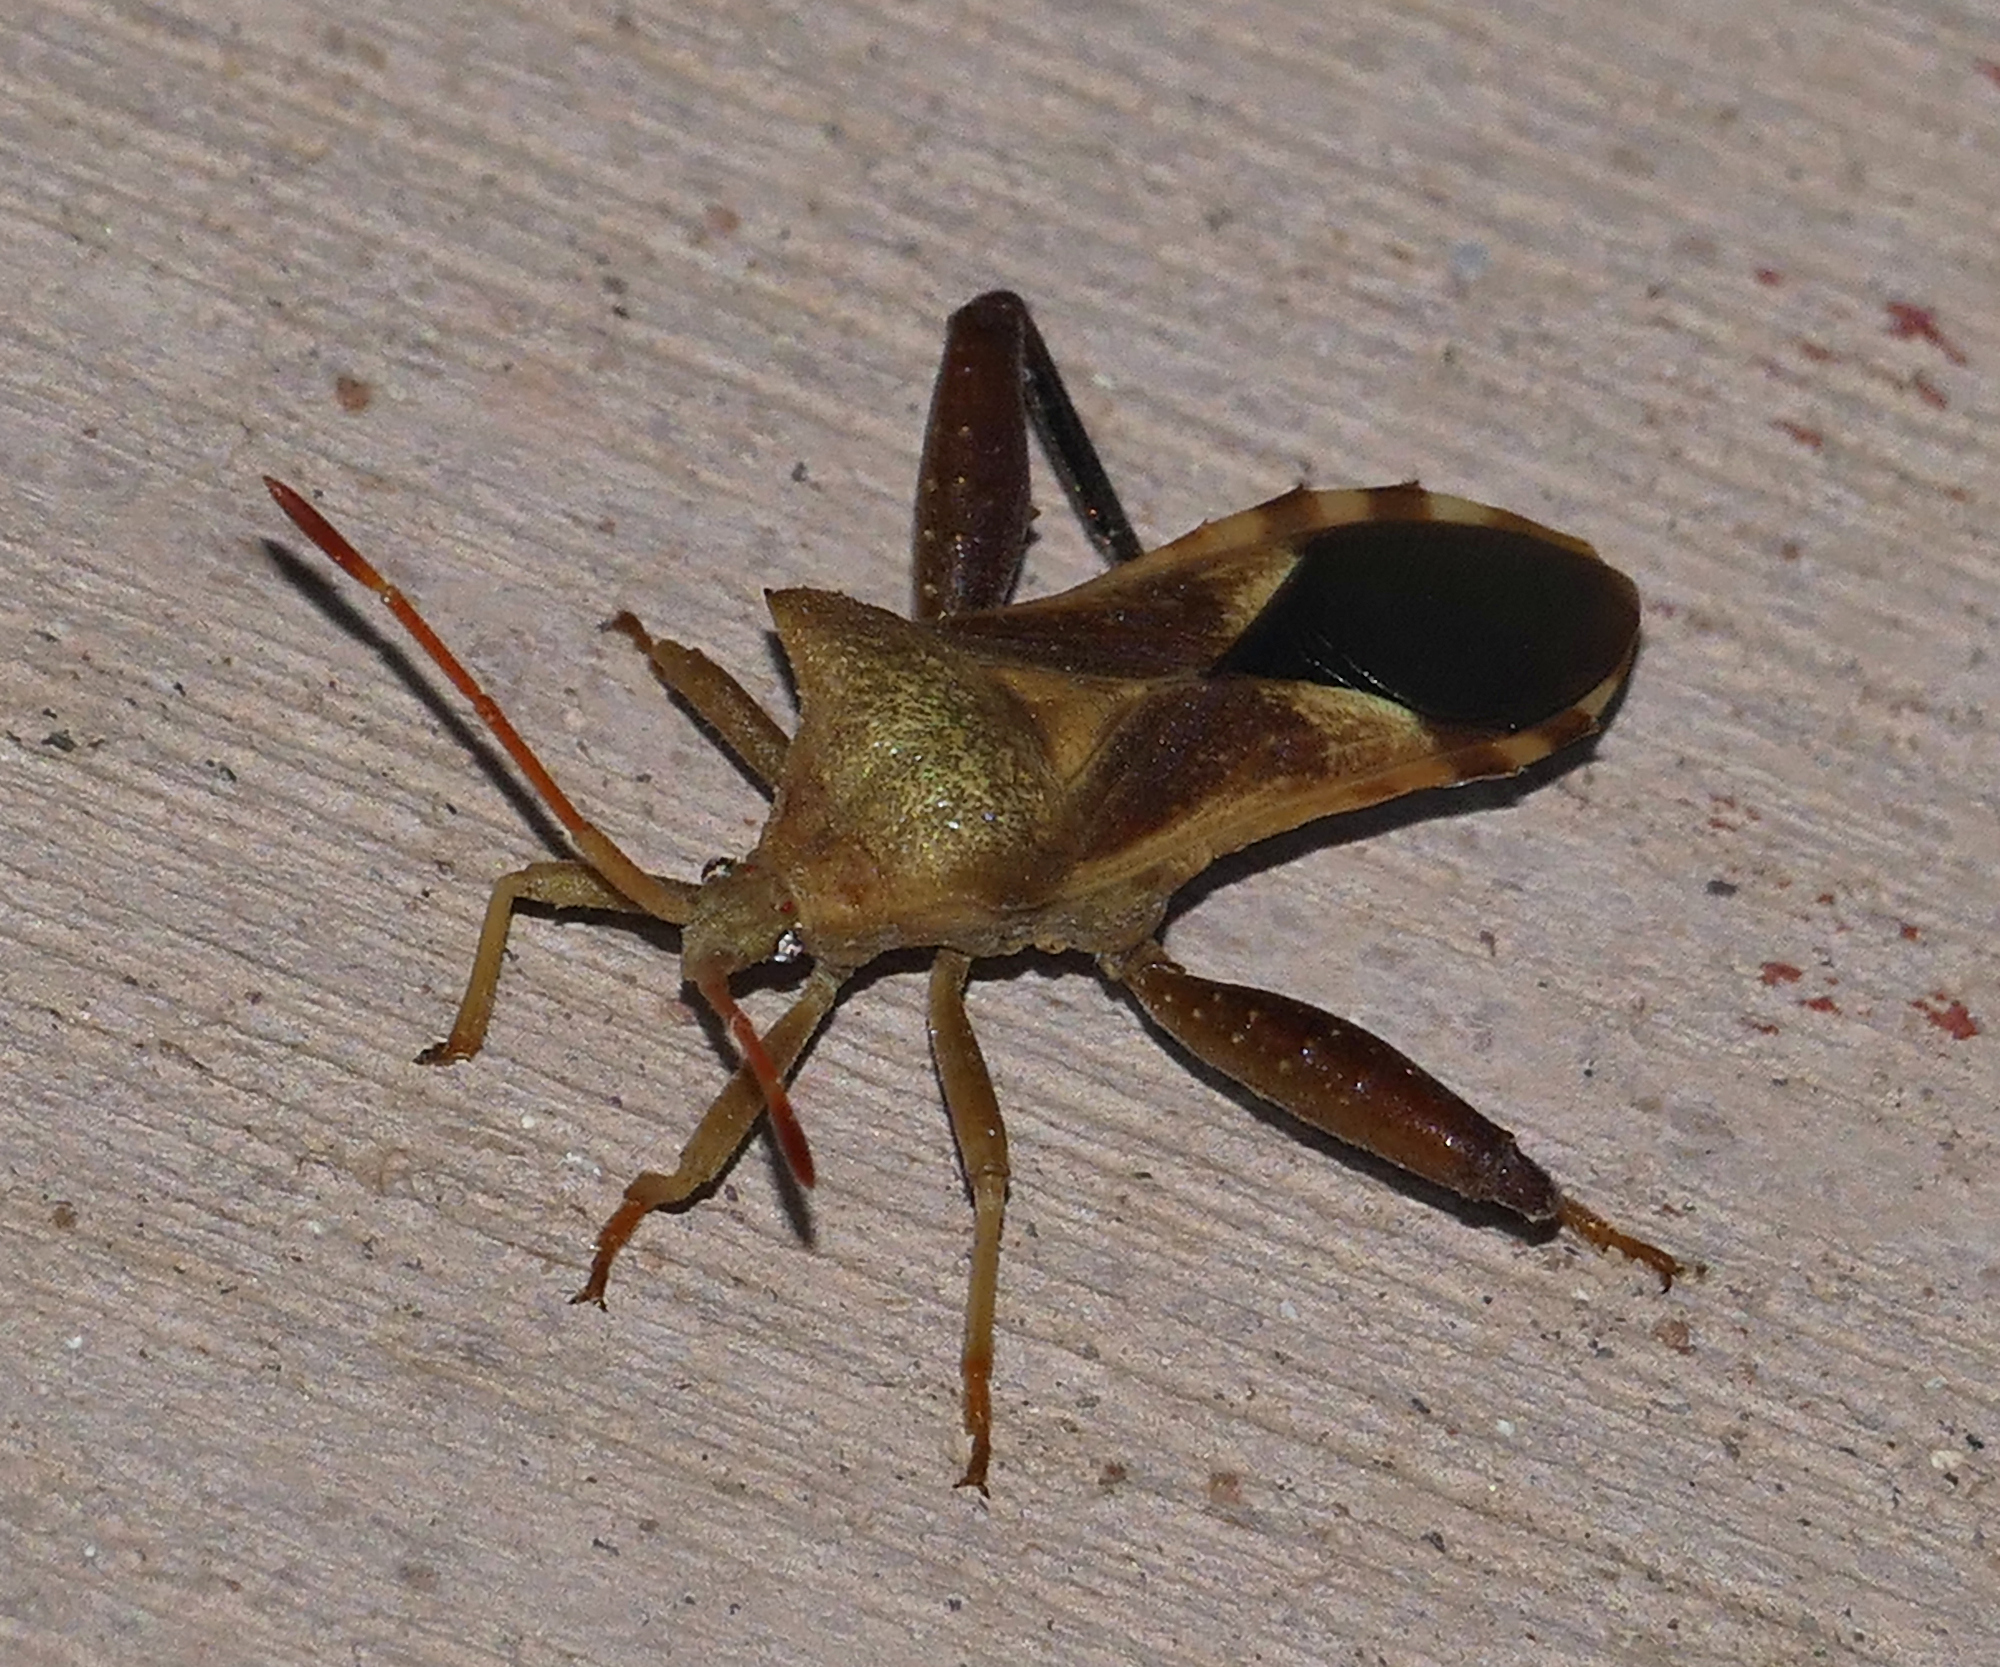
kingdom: Animalia
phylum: Arthropoda
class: Insecta
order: Hemiptera
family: Coreidae
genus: Mozena
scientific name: Mozena arizonensis
